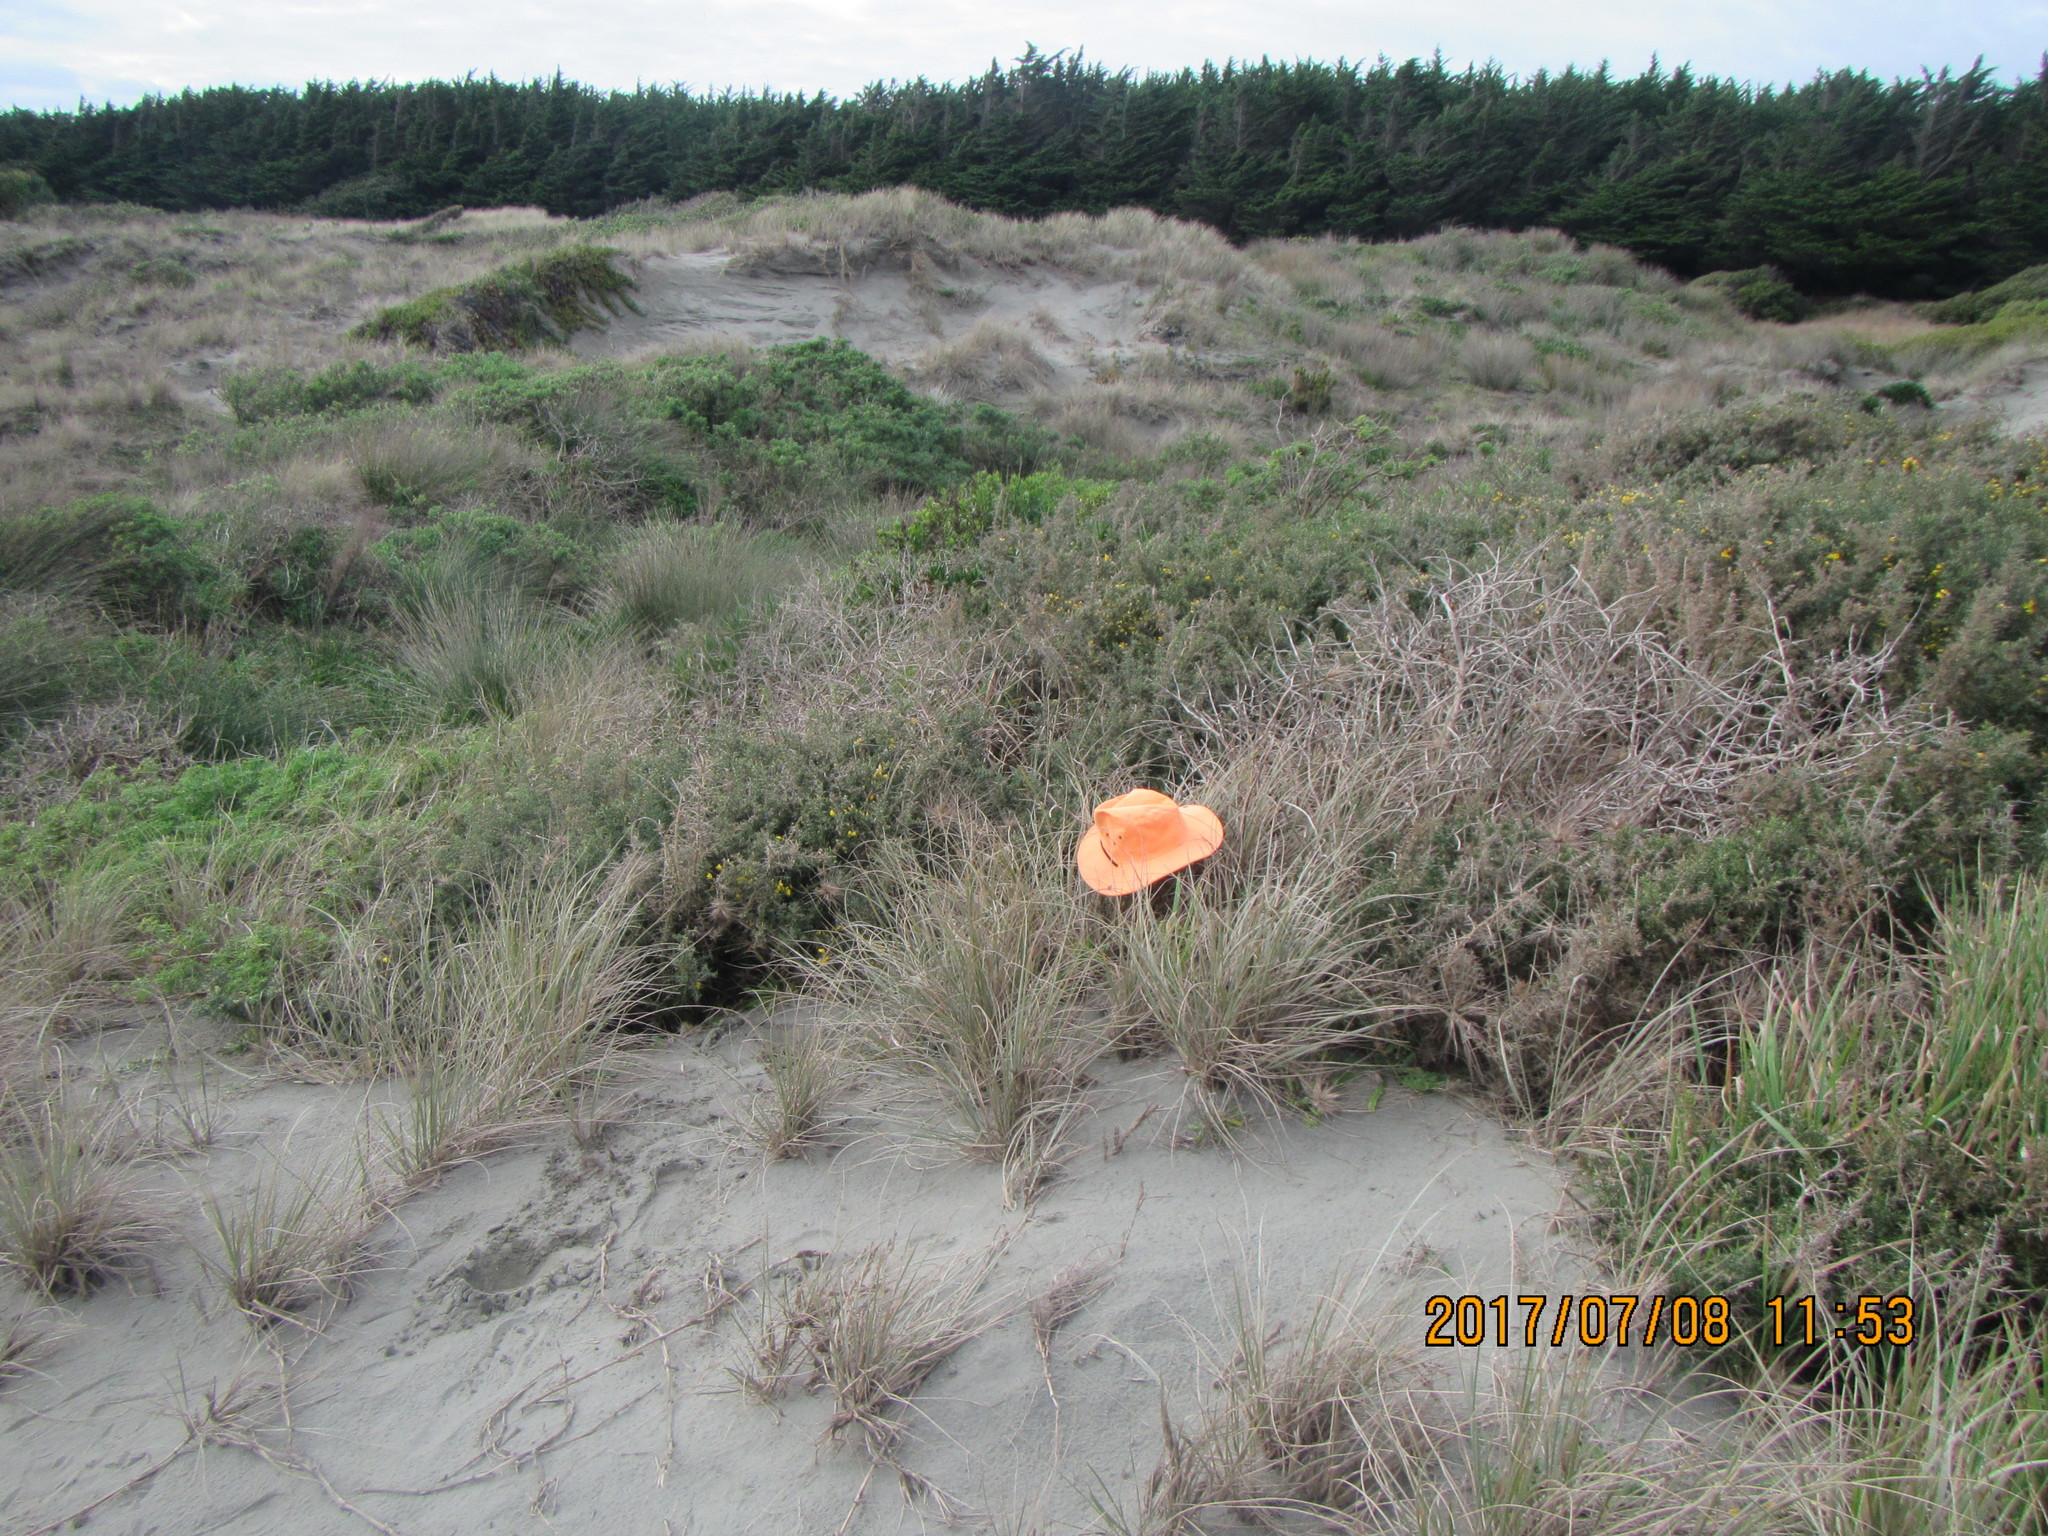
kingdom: Animalia
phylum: Arthropoda
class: Arachnida
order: Araneae
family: Thomisidae
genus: Sidymella
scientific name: Sidymella trapezia
